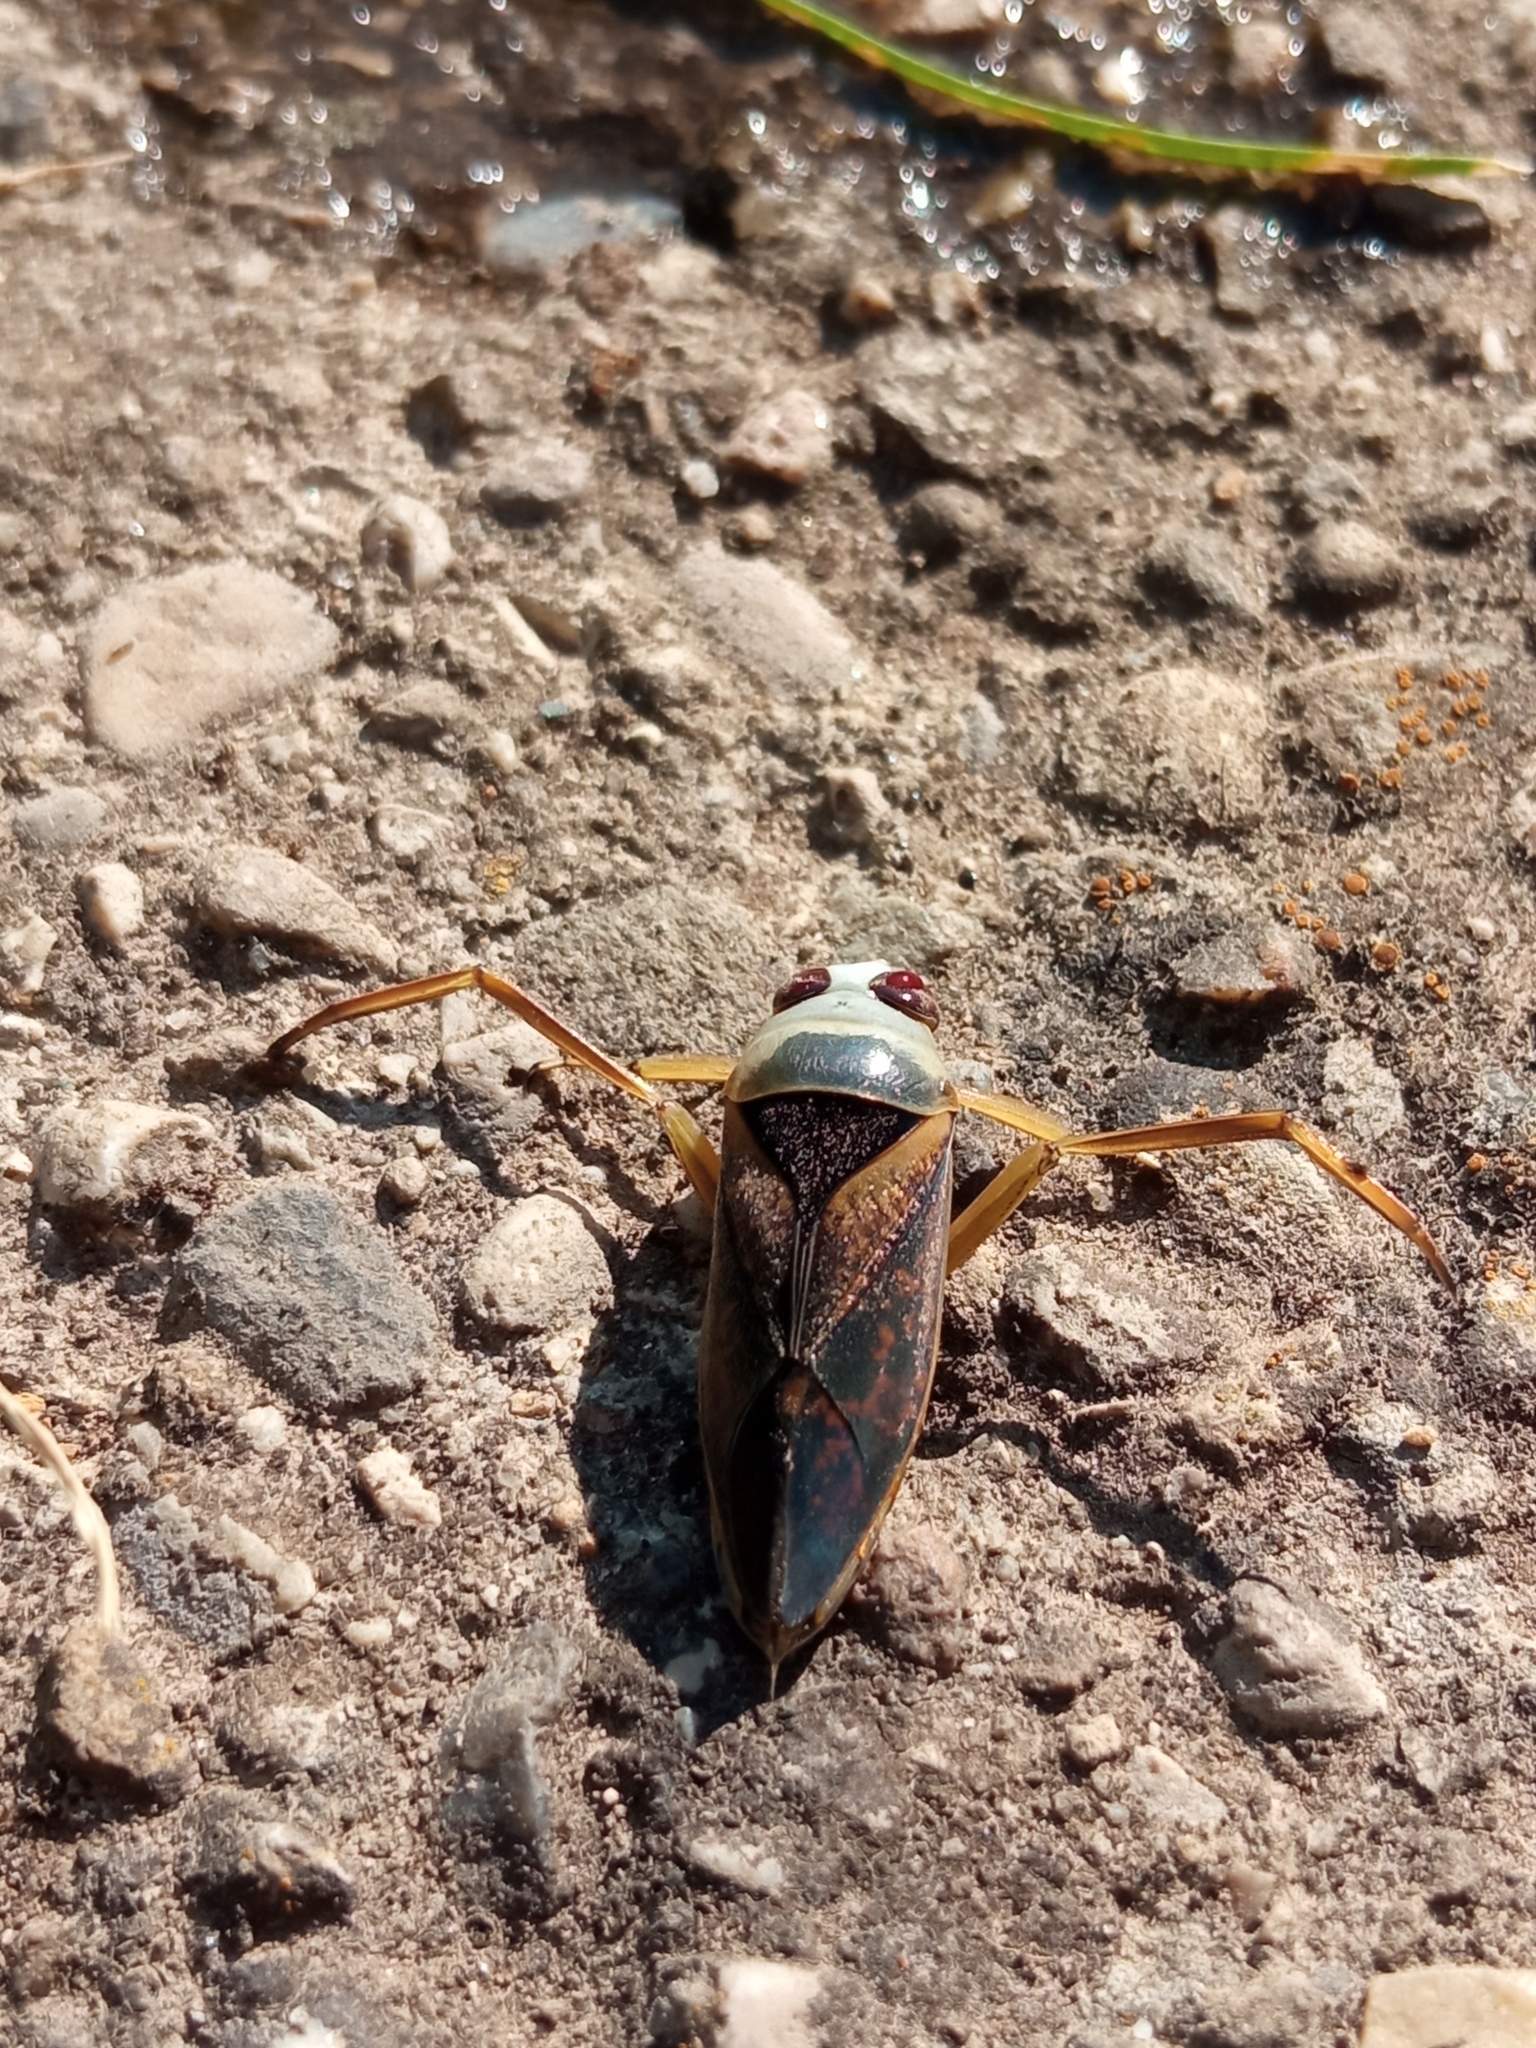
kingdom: Animalia
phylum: Arthropoda
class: Insecta
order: Hemiptera
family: Notonectidae
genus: Notonecta
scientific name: Notonecta maculata
